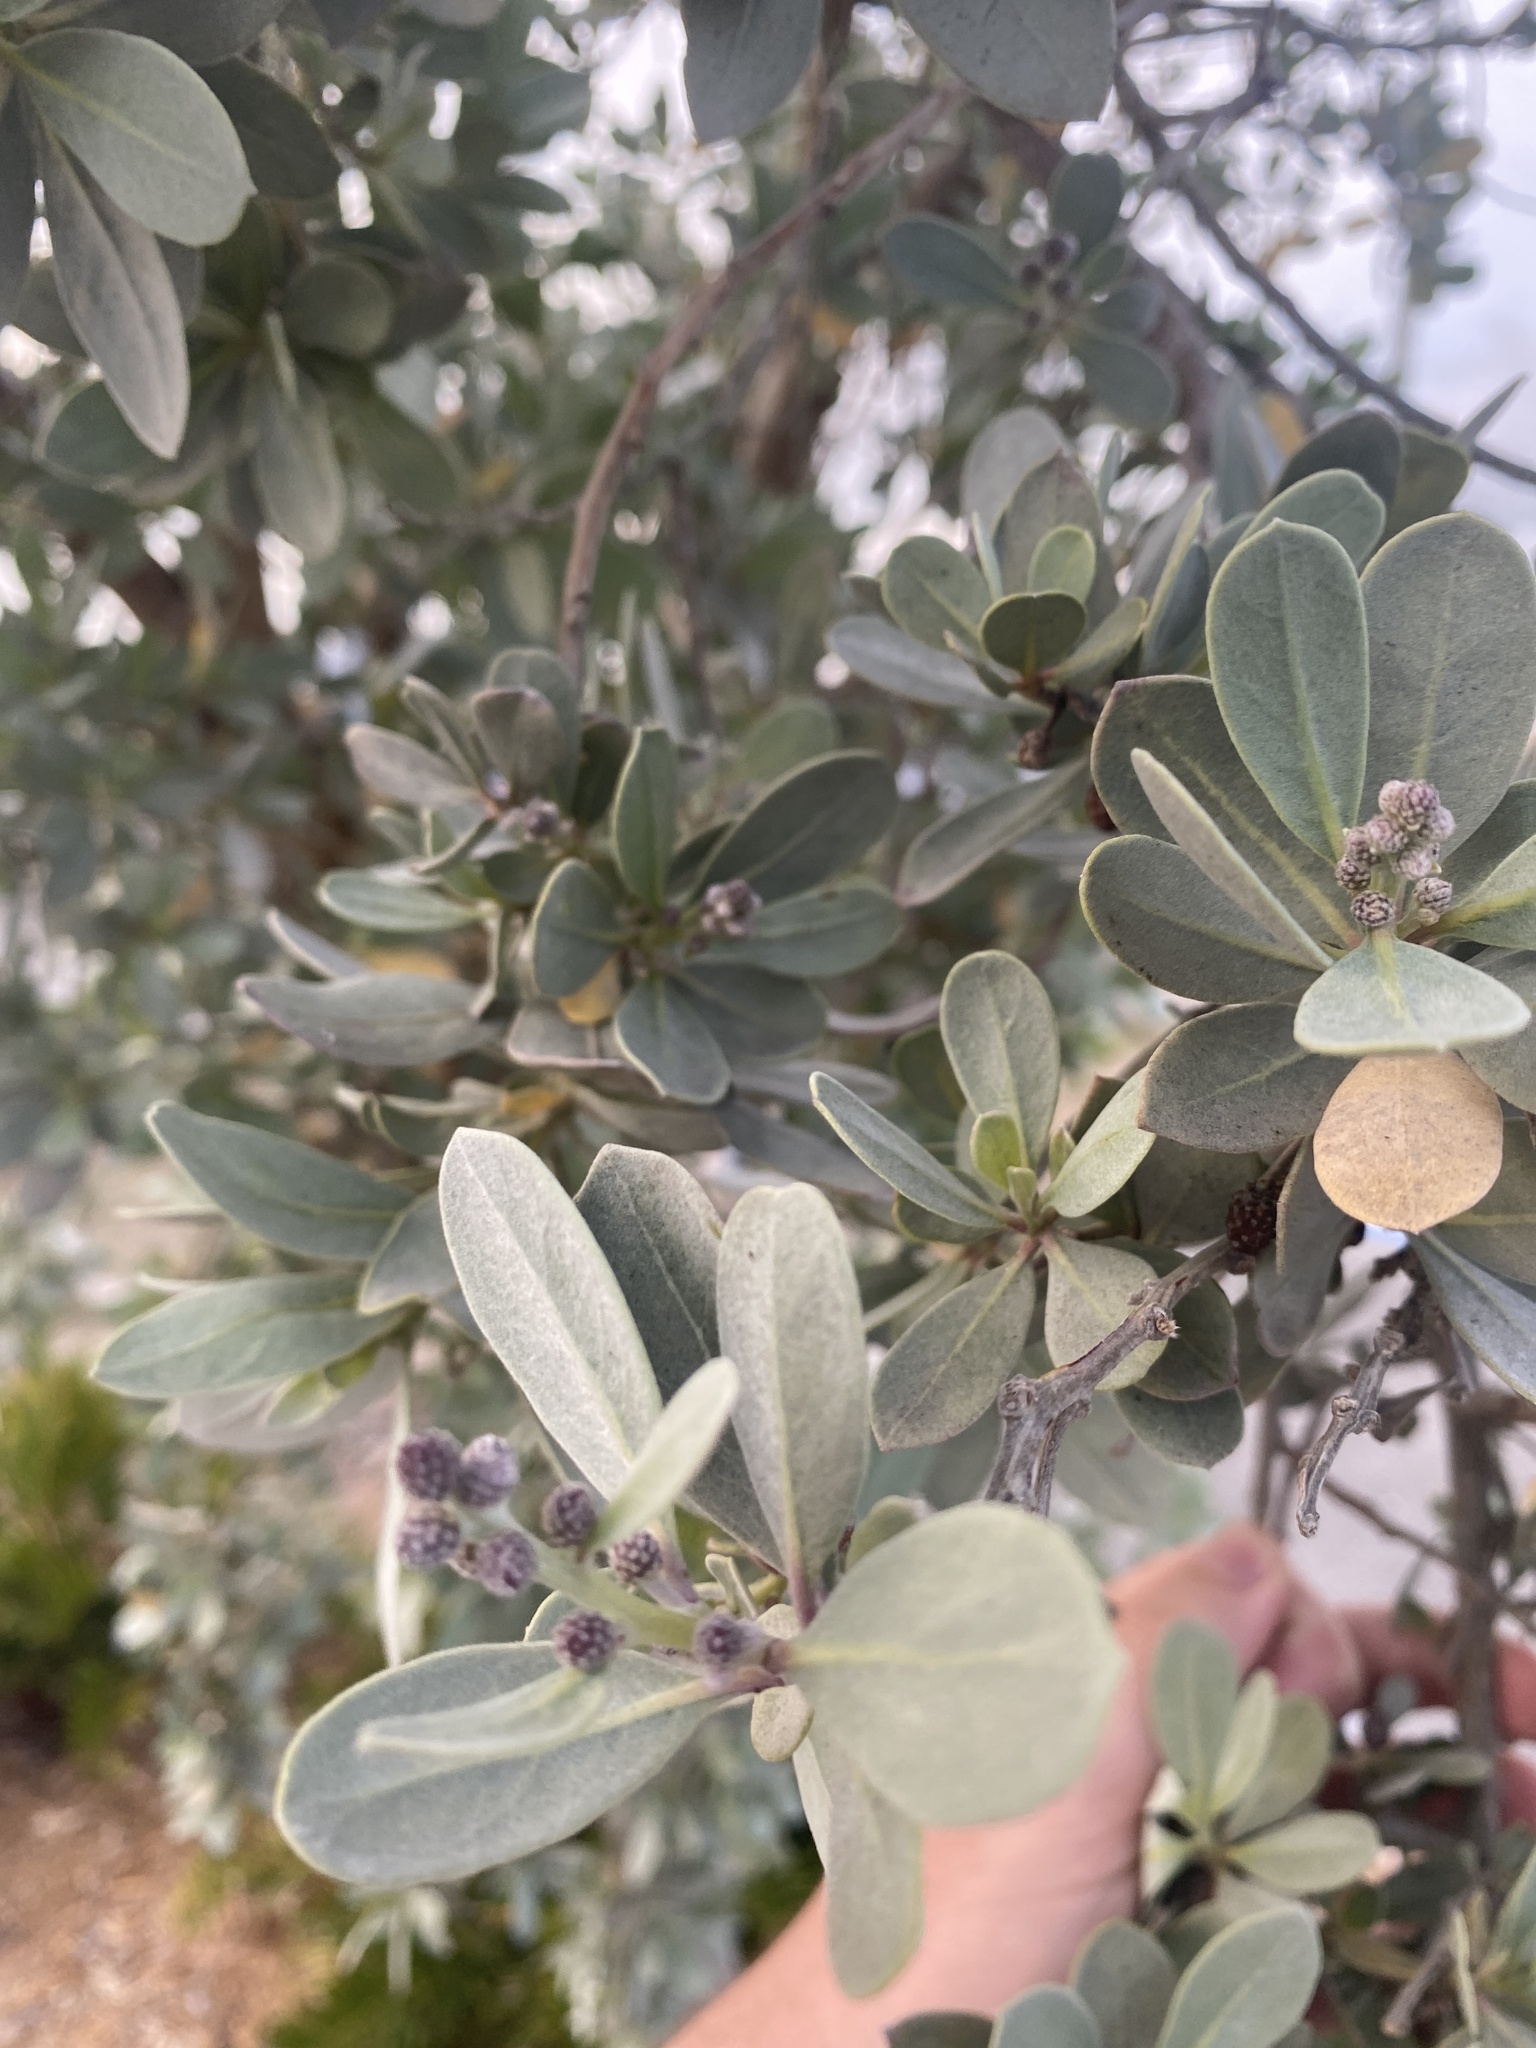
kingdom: Plantae
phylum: Tracheophyta
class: Magnoliopsida
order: Myrtales
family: Combretaceae
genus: Conocarpus
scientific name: Conocarpus erectus
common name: Button mangrove
